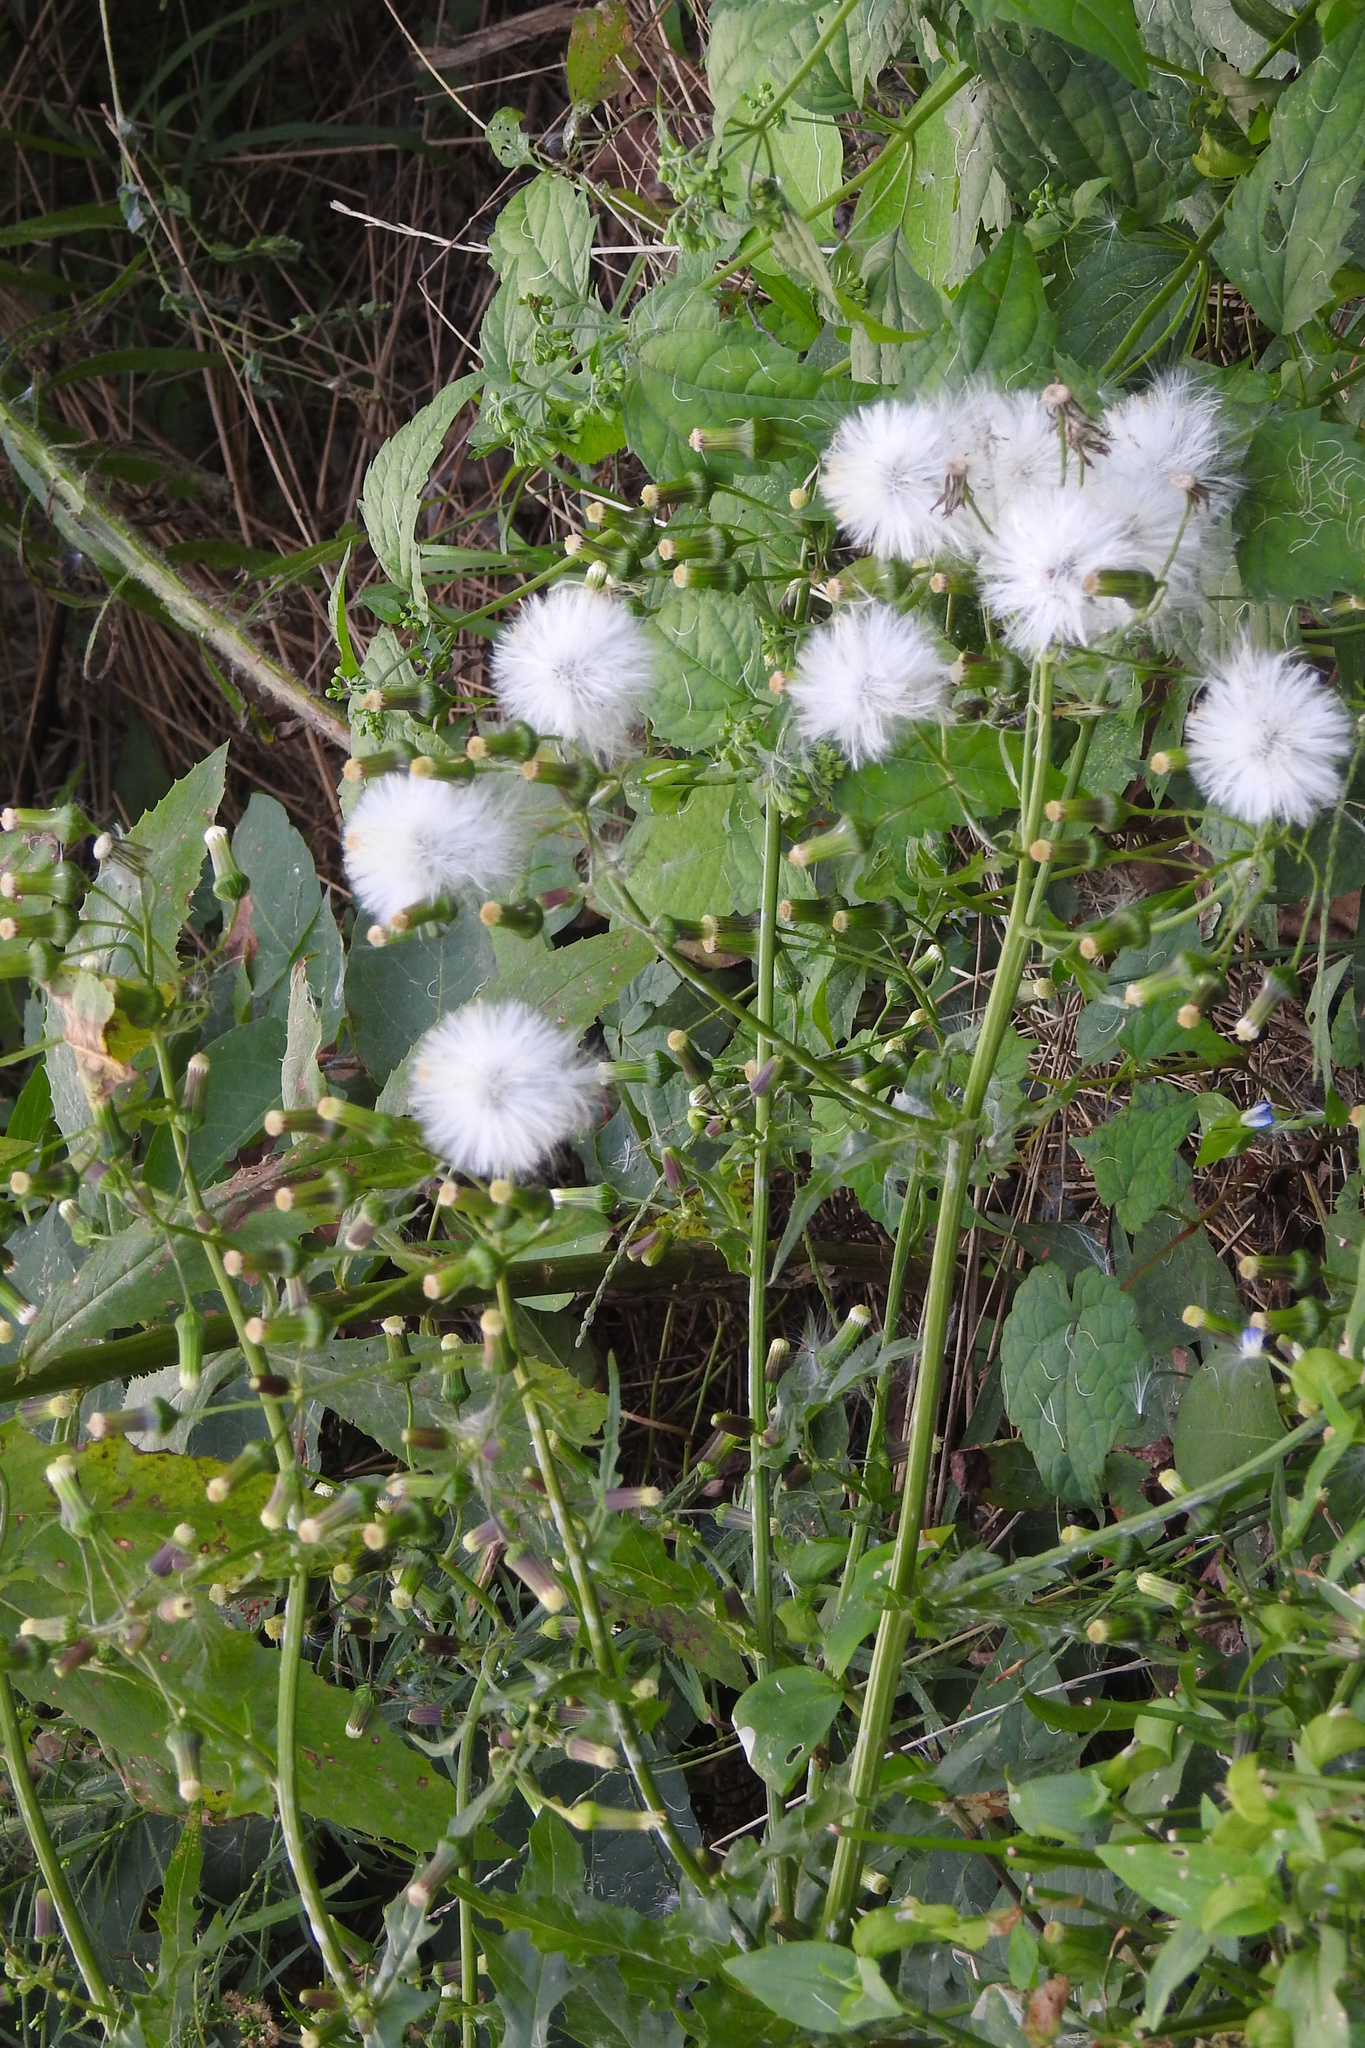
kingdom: Plantae
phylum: Tracheophyta
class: Magnoliopsida
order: Asterales
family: Asteraceae
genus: Erechtites
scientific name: Erechtites hieraciifolius
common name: American burnweed
